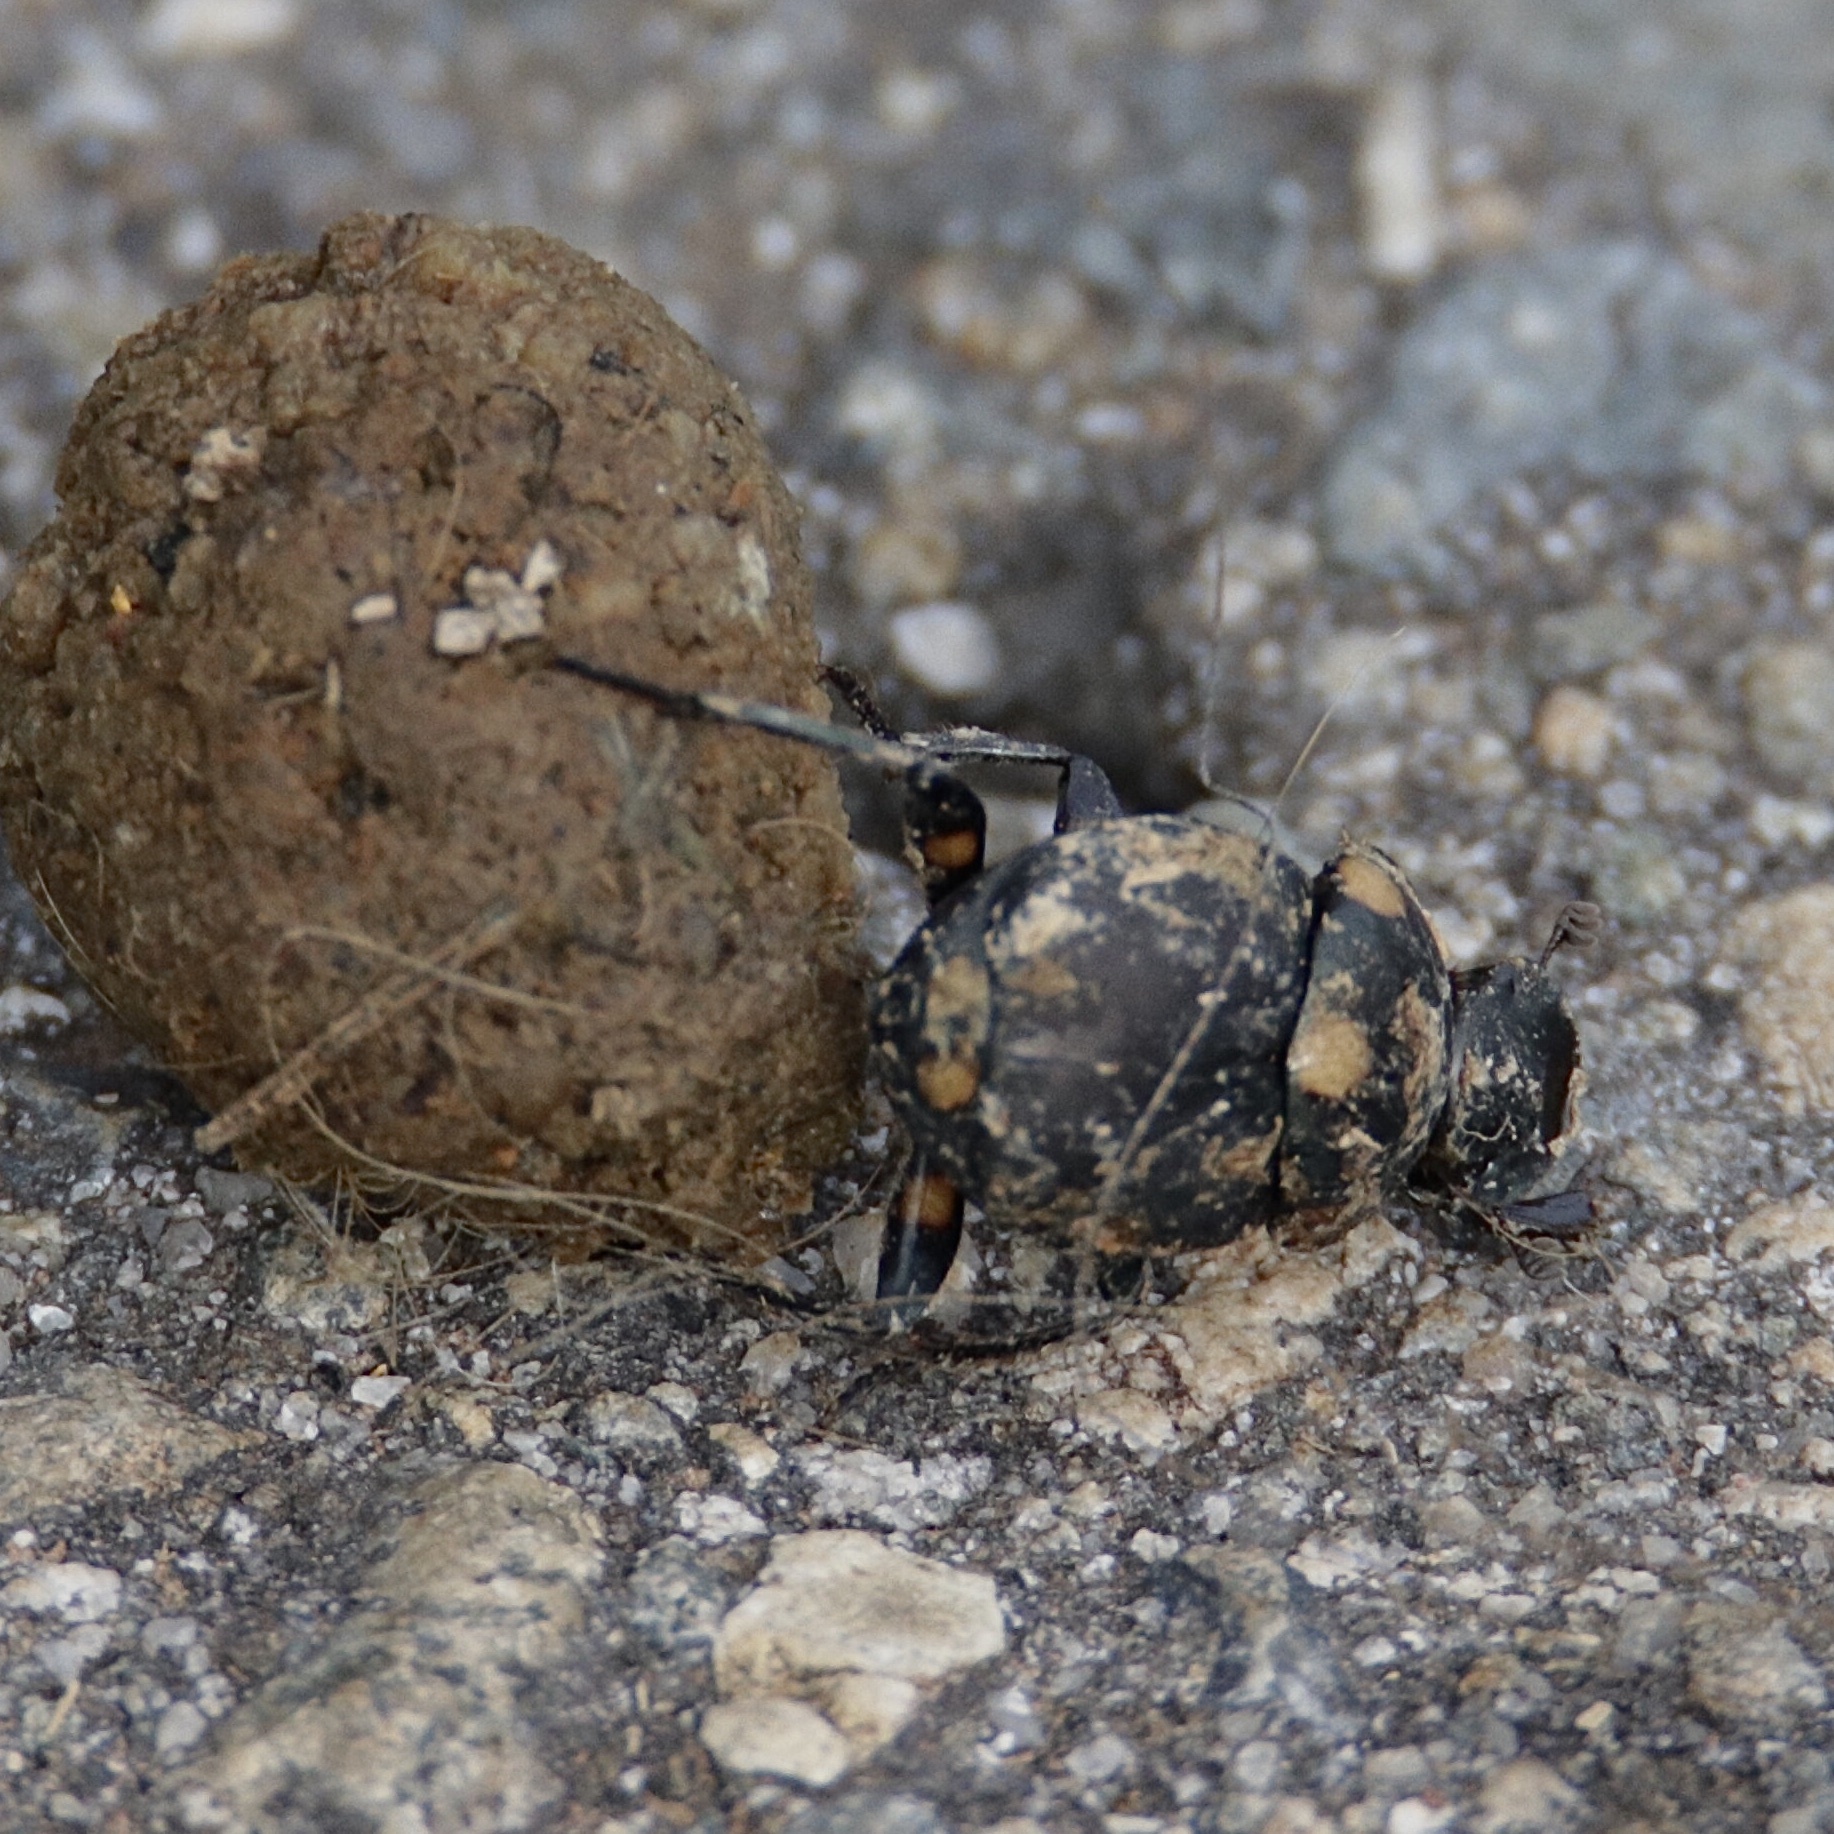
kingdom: Animalia
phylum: Arthropoda
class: Insecta
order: Coleoptera
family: Scarabaeidae
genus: Canthon
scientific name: Canthon septemmaculatus
